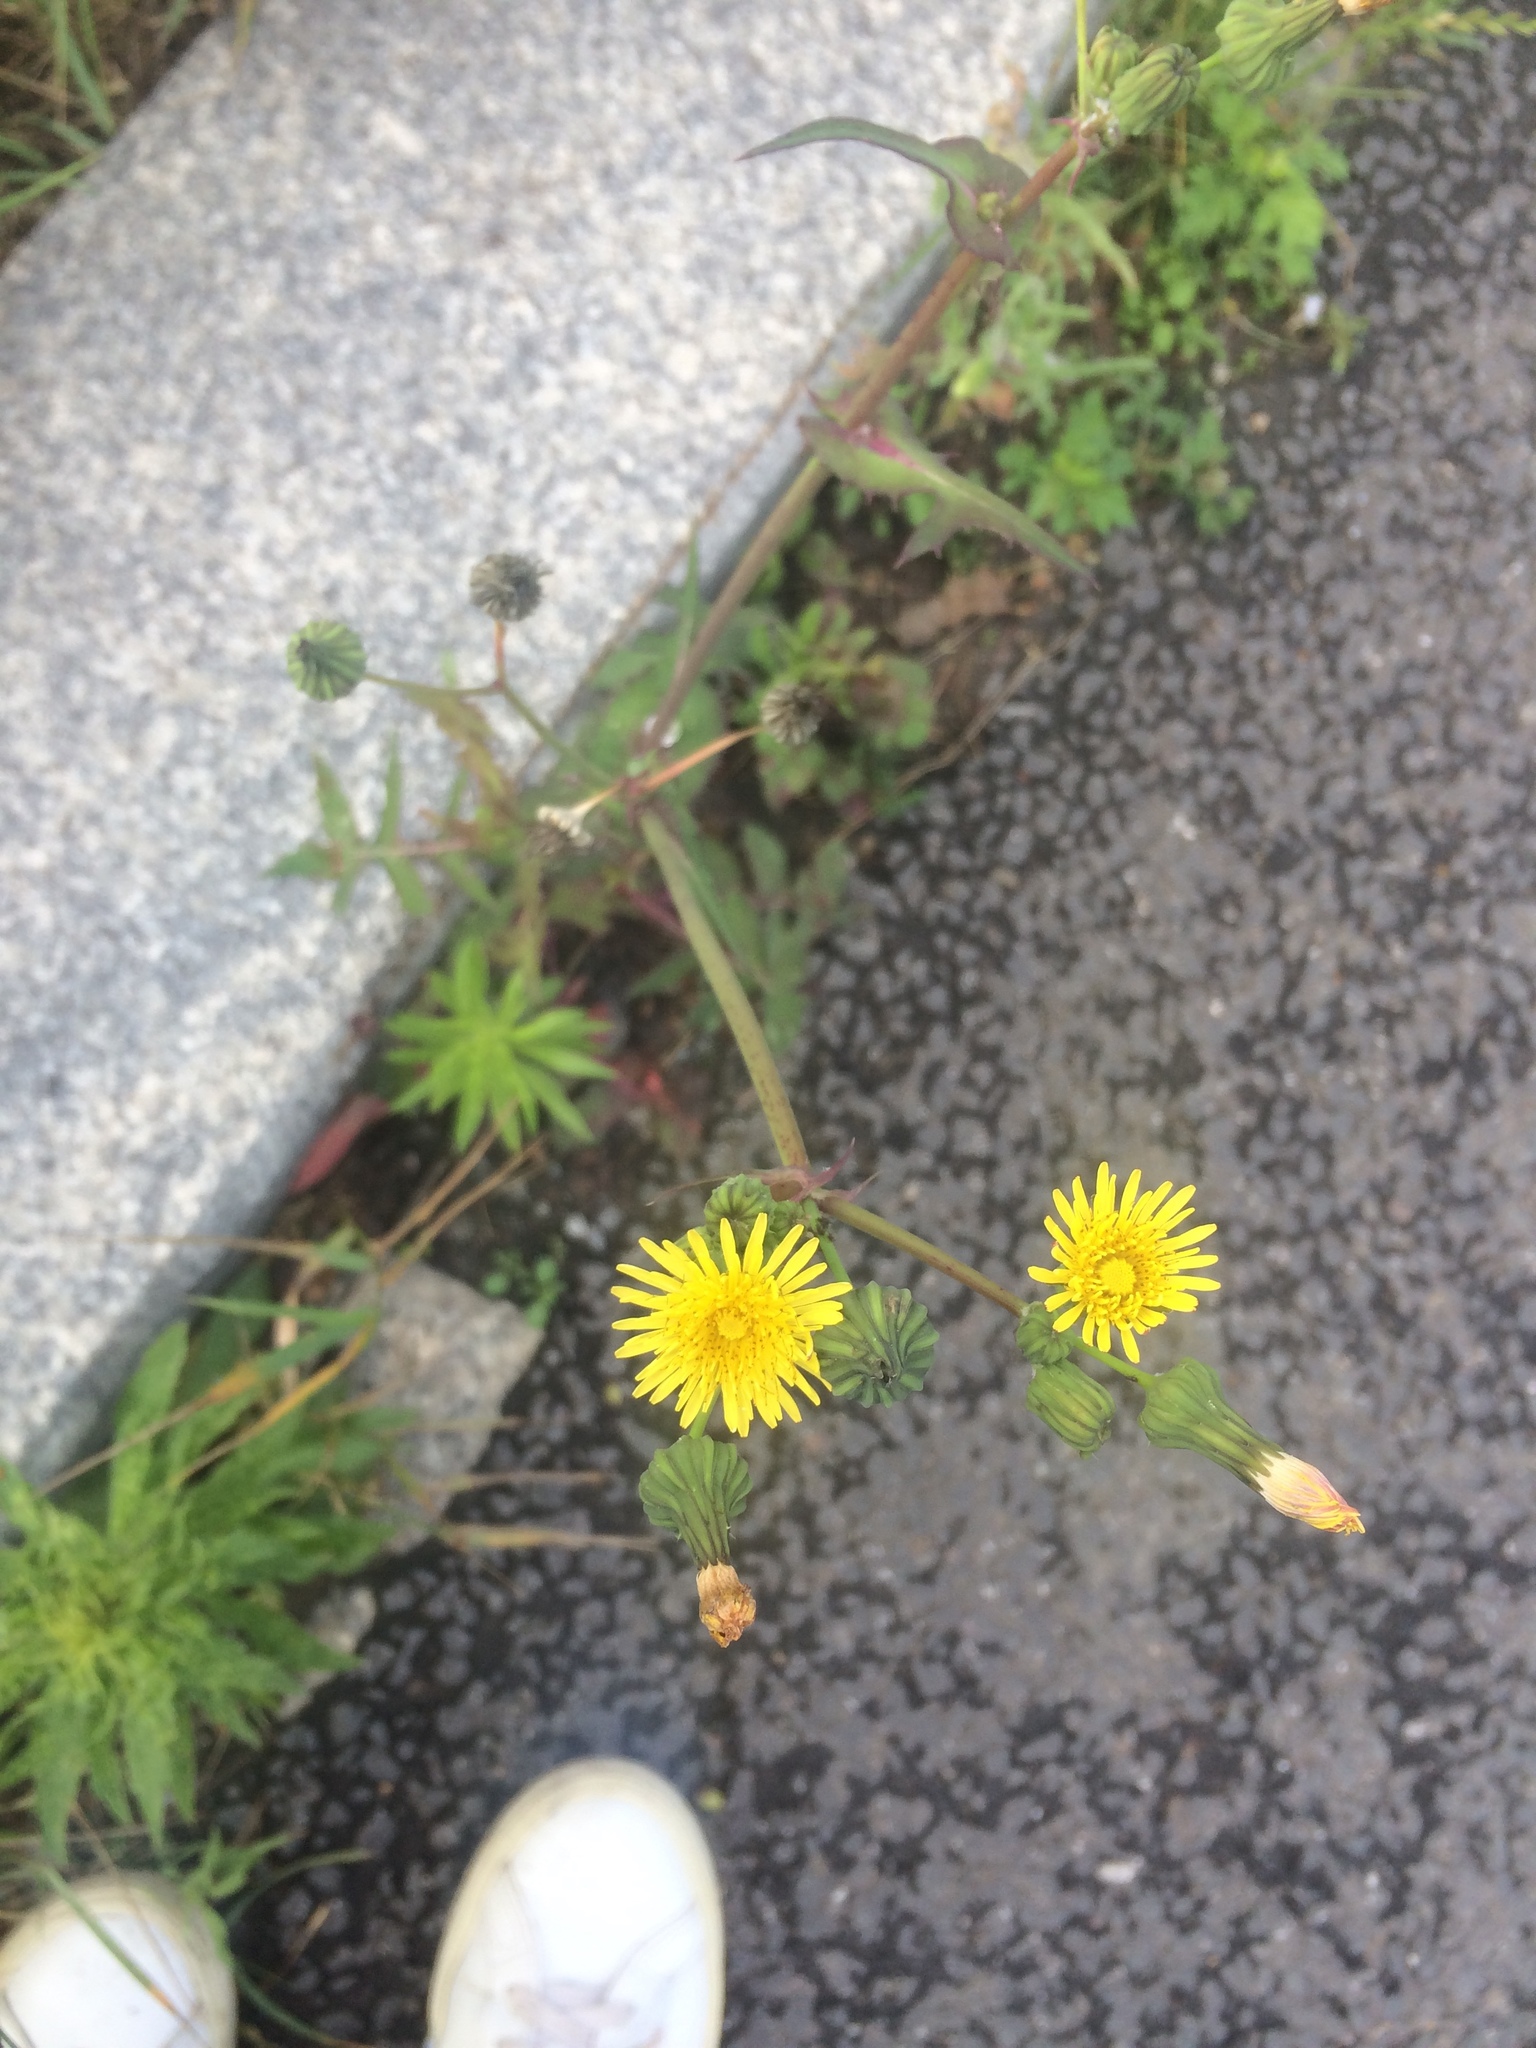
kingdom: Plantae
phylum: Tracheophyta
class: Magnoliopsida
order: Asterales
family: Asteraceae
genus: Sonchus
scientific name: Sonchus oleraceus
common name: Common sowthistle
